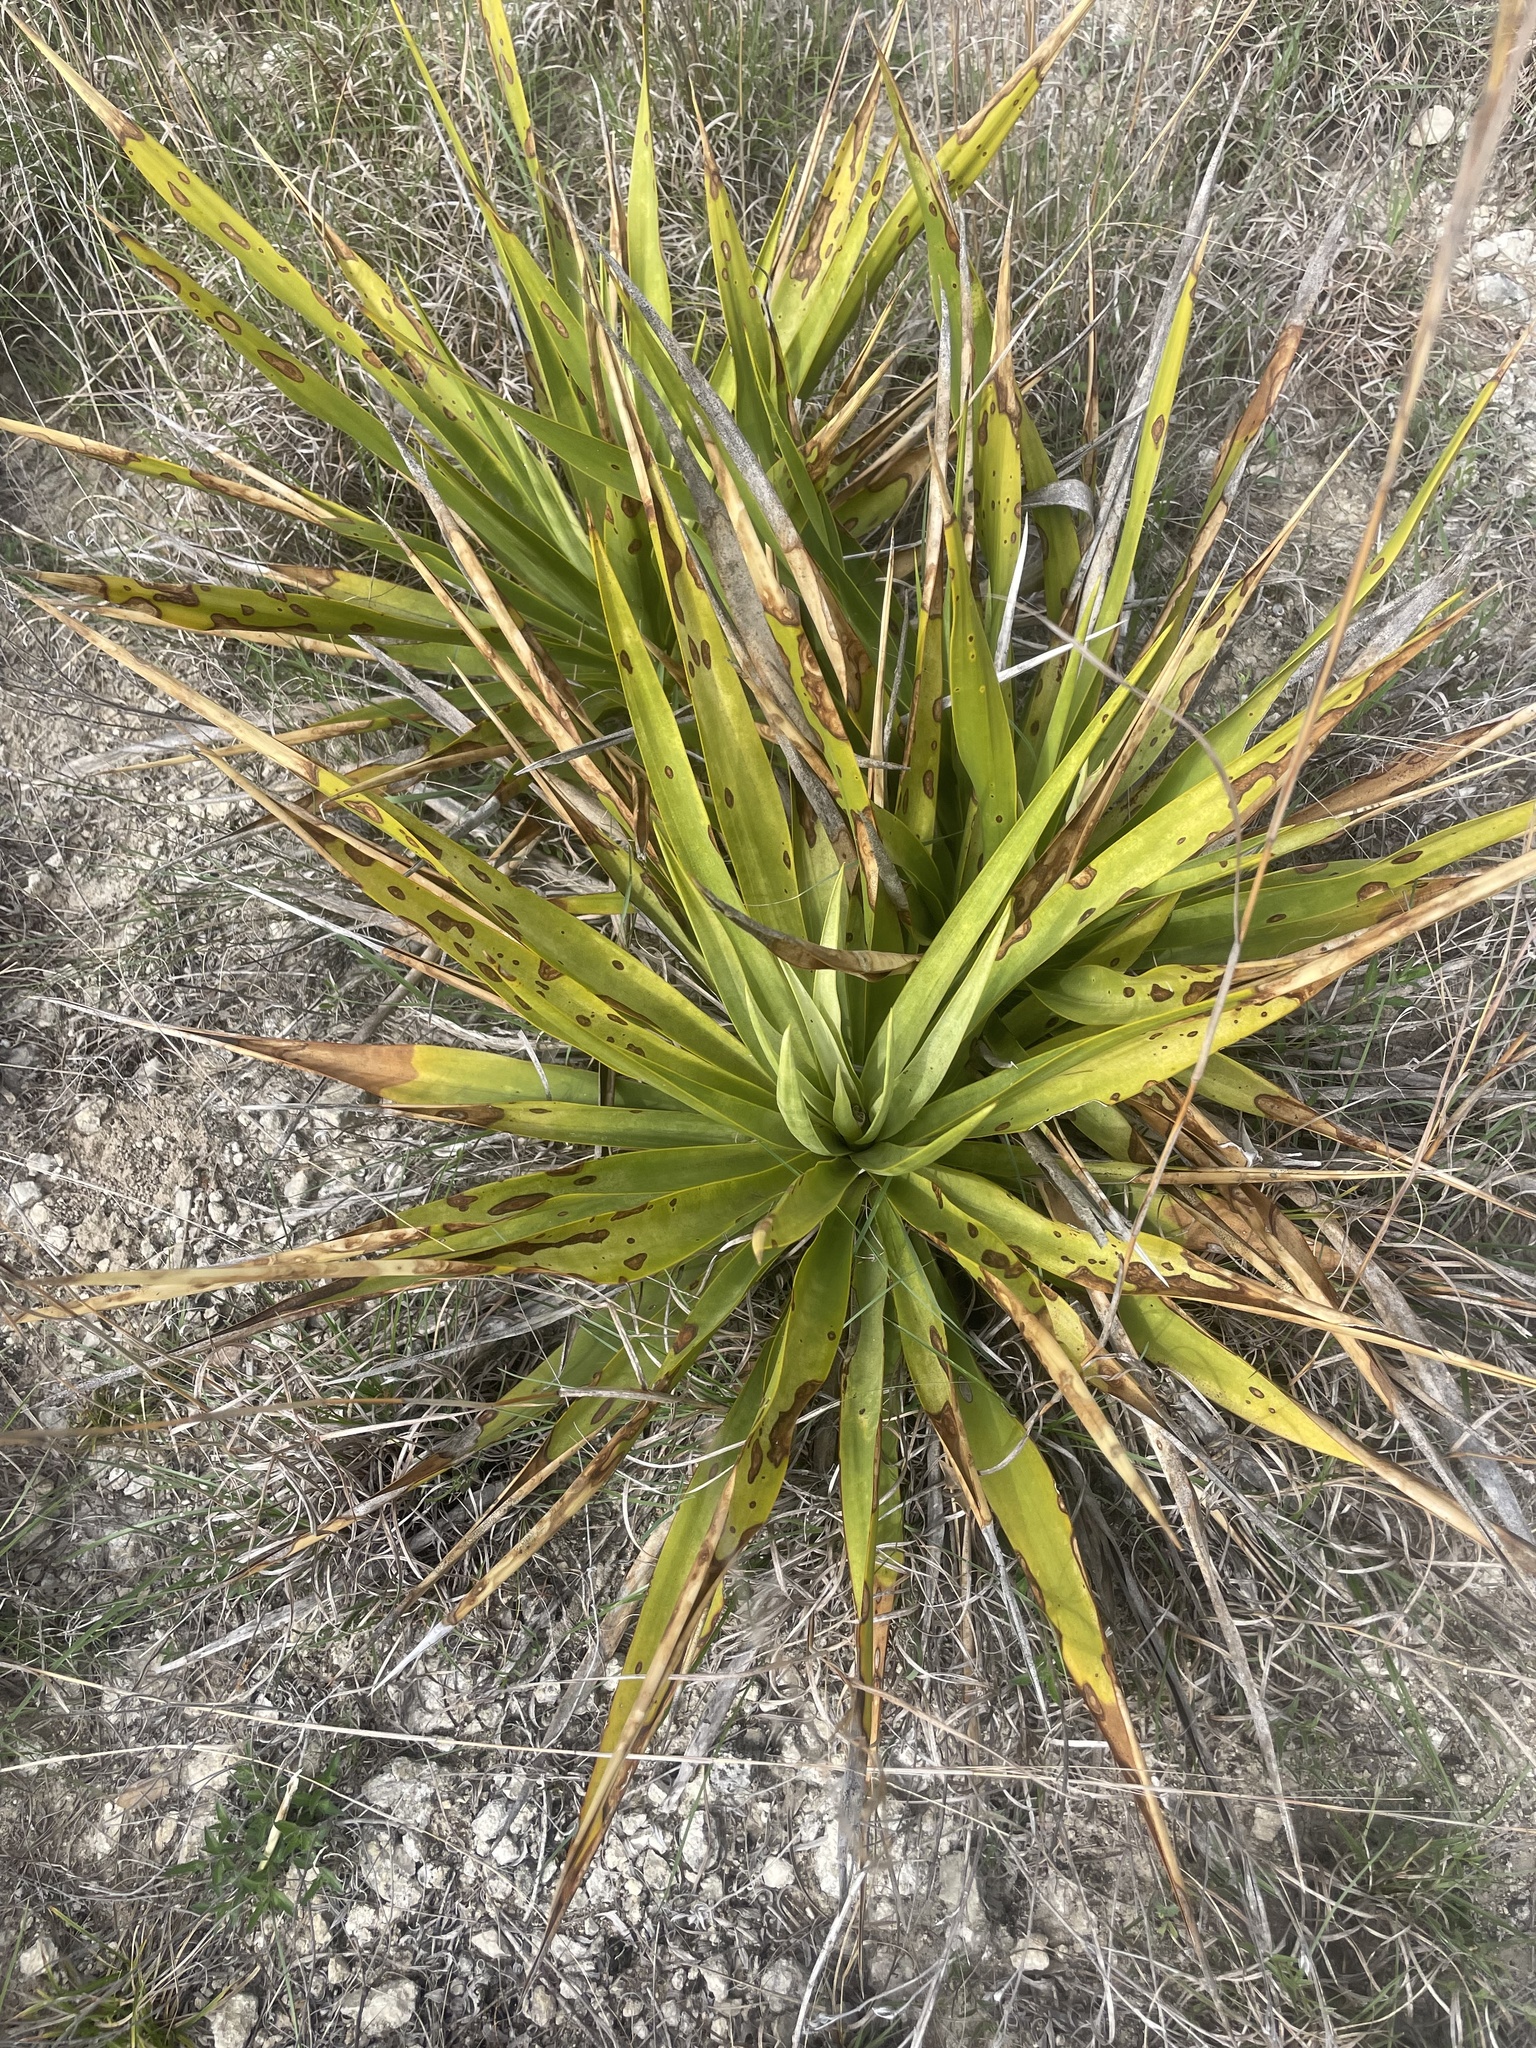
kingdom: Plantae
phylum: Tracheophyta
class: Liliopsida
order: Asparagales
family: Asparagaceae
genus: Yucca
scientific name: Yucca rupicola
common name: Twisted-leaf spanish-dagger
